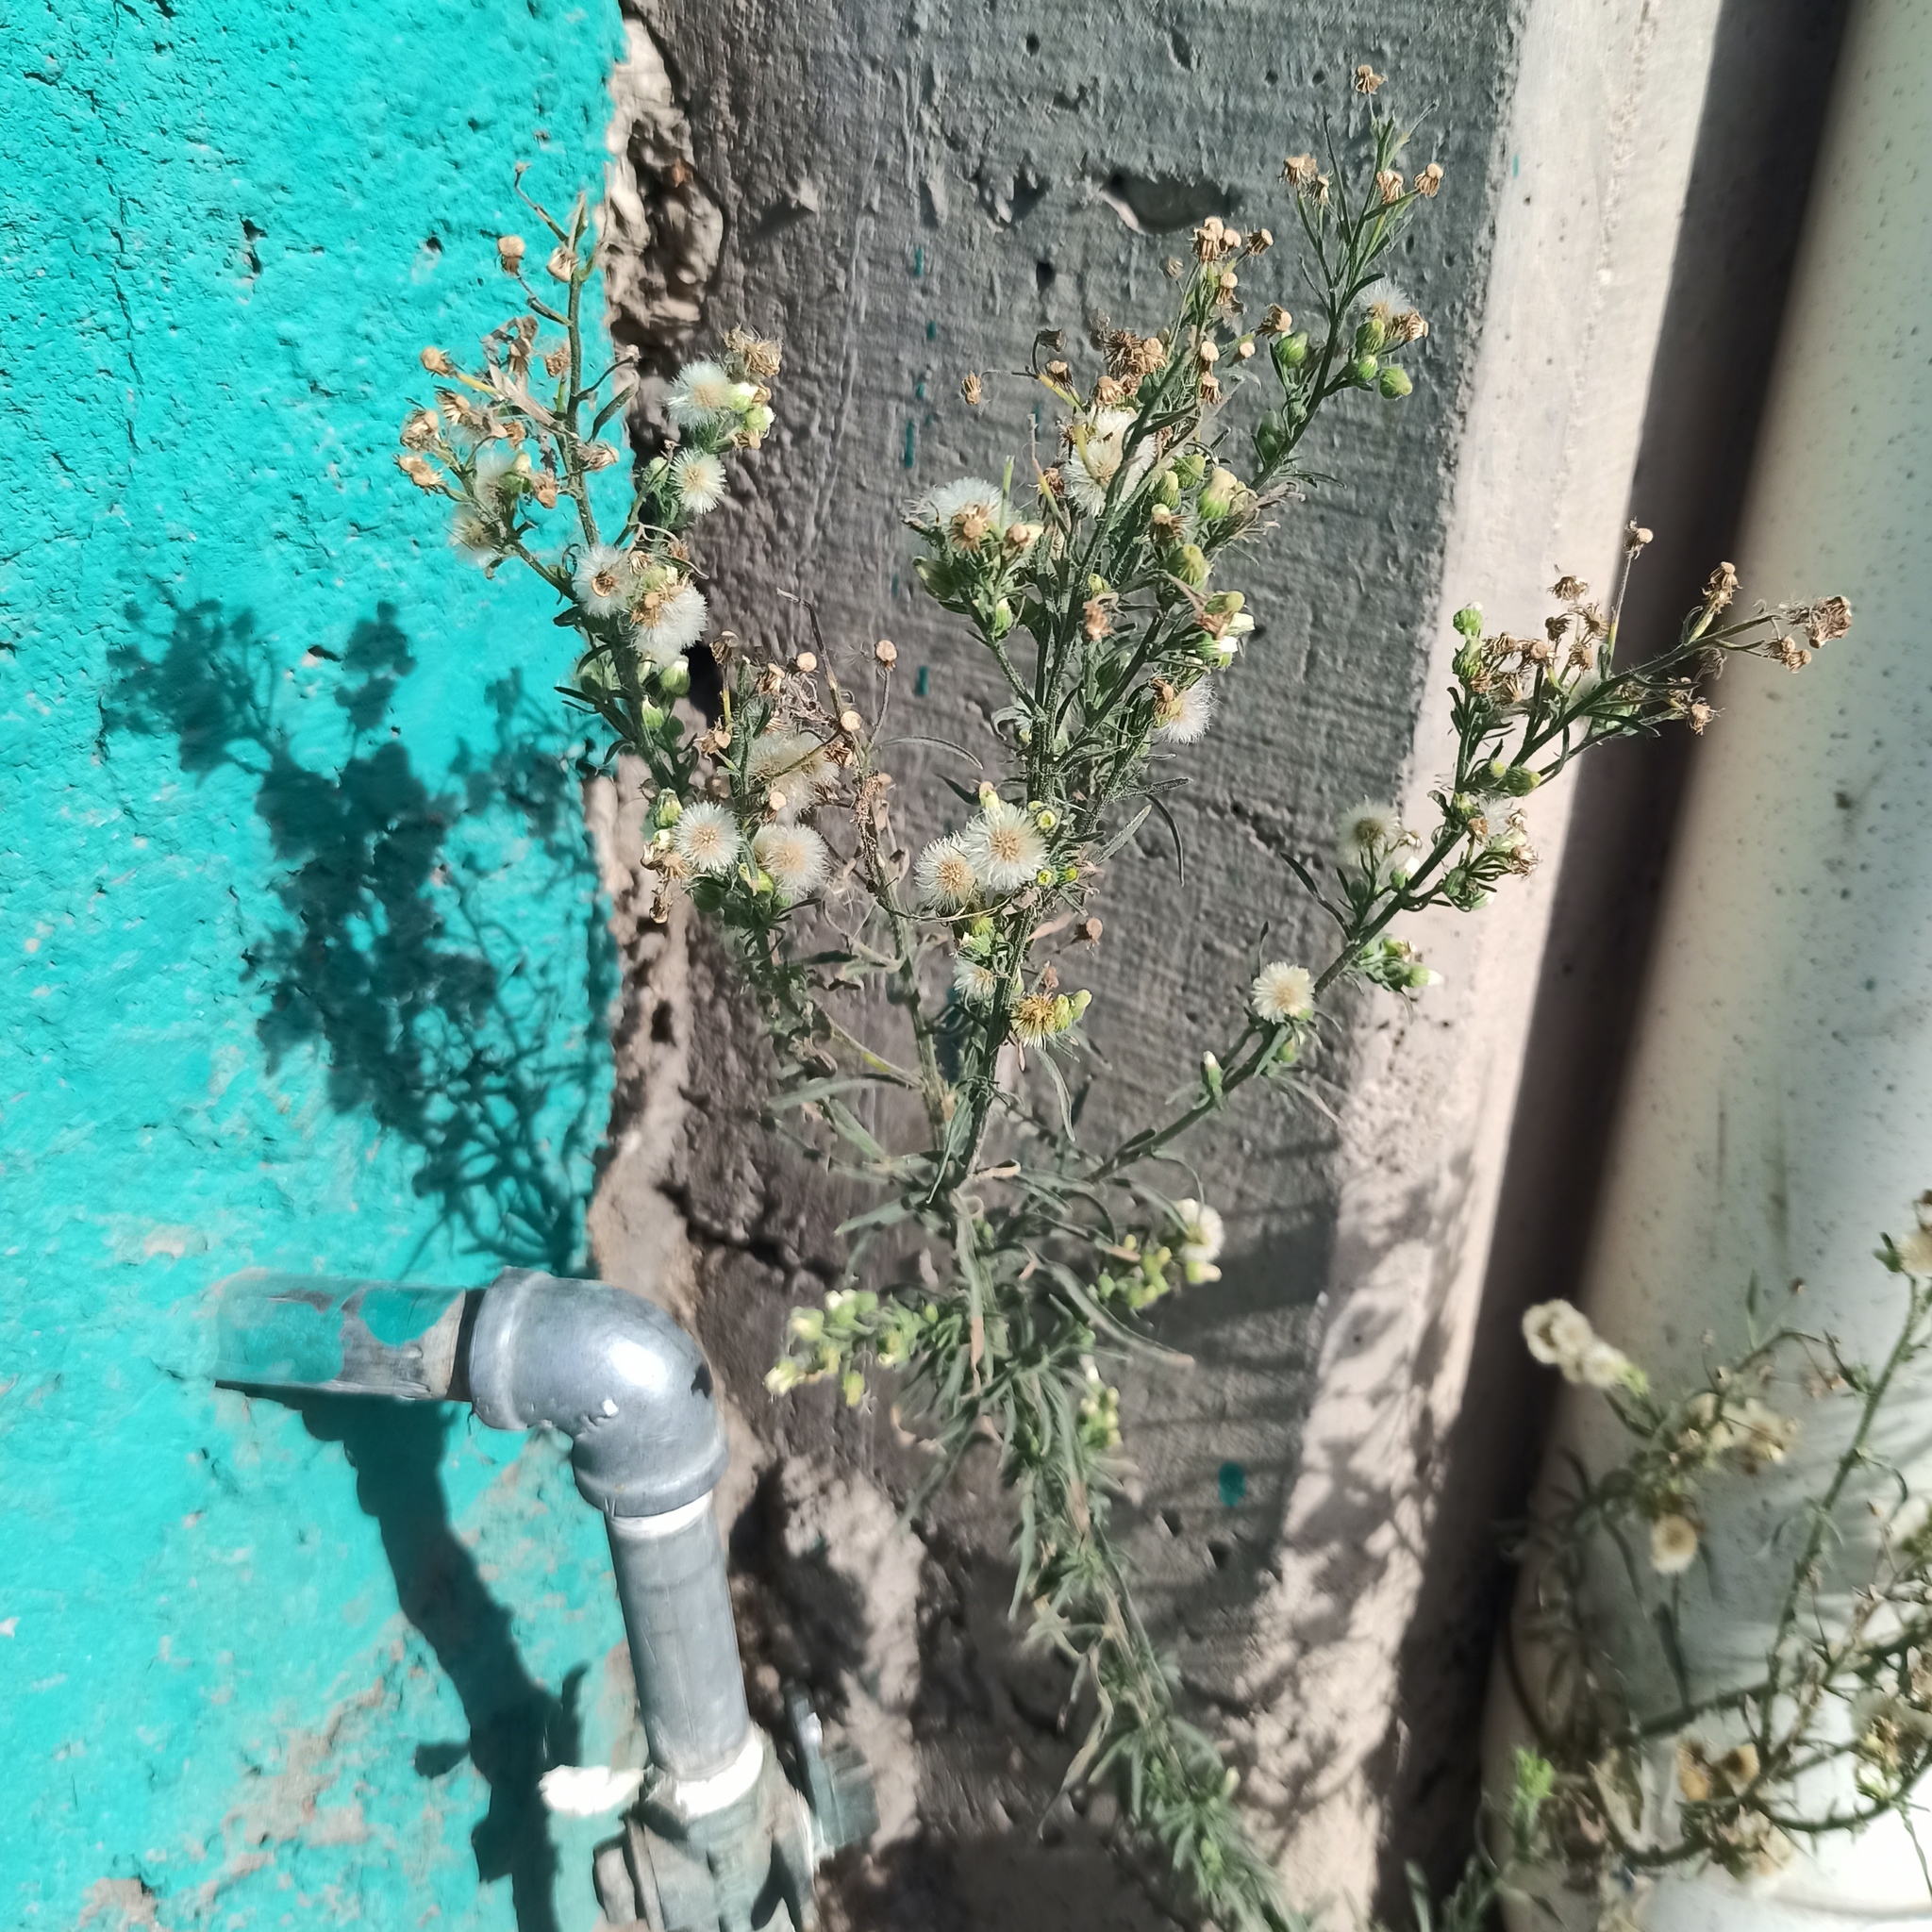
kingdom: Plantae
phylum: Tracheophyta
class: Magnoliopsida
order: Asterales
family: Asteraceae
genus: Erigeron
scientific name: Erigeron bonariensis
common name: Argentine fleabane
